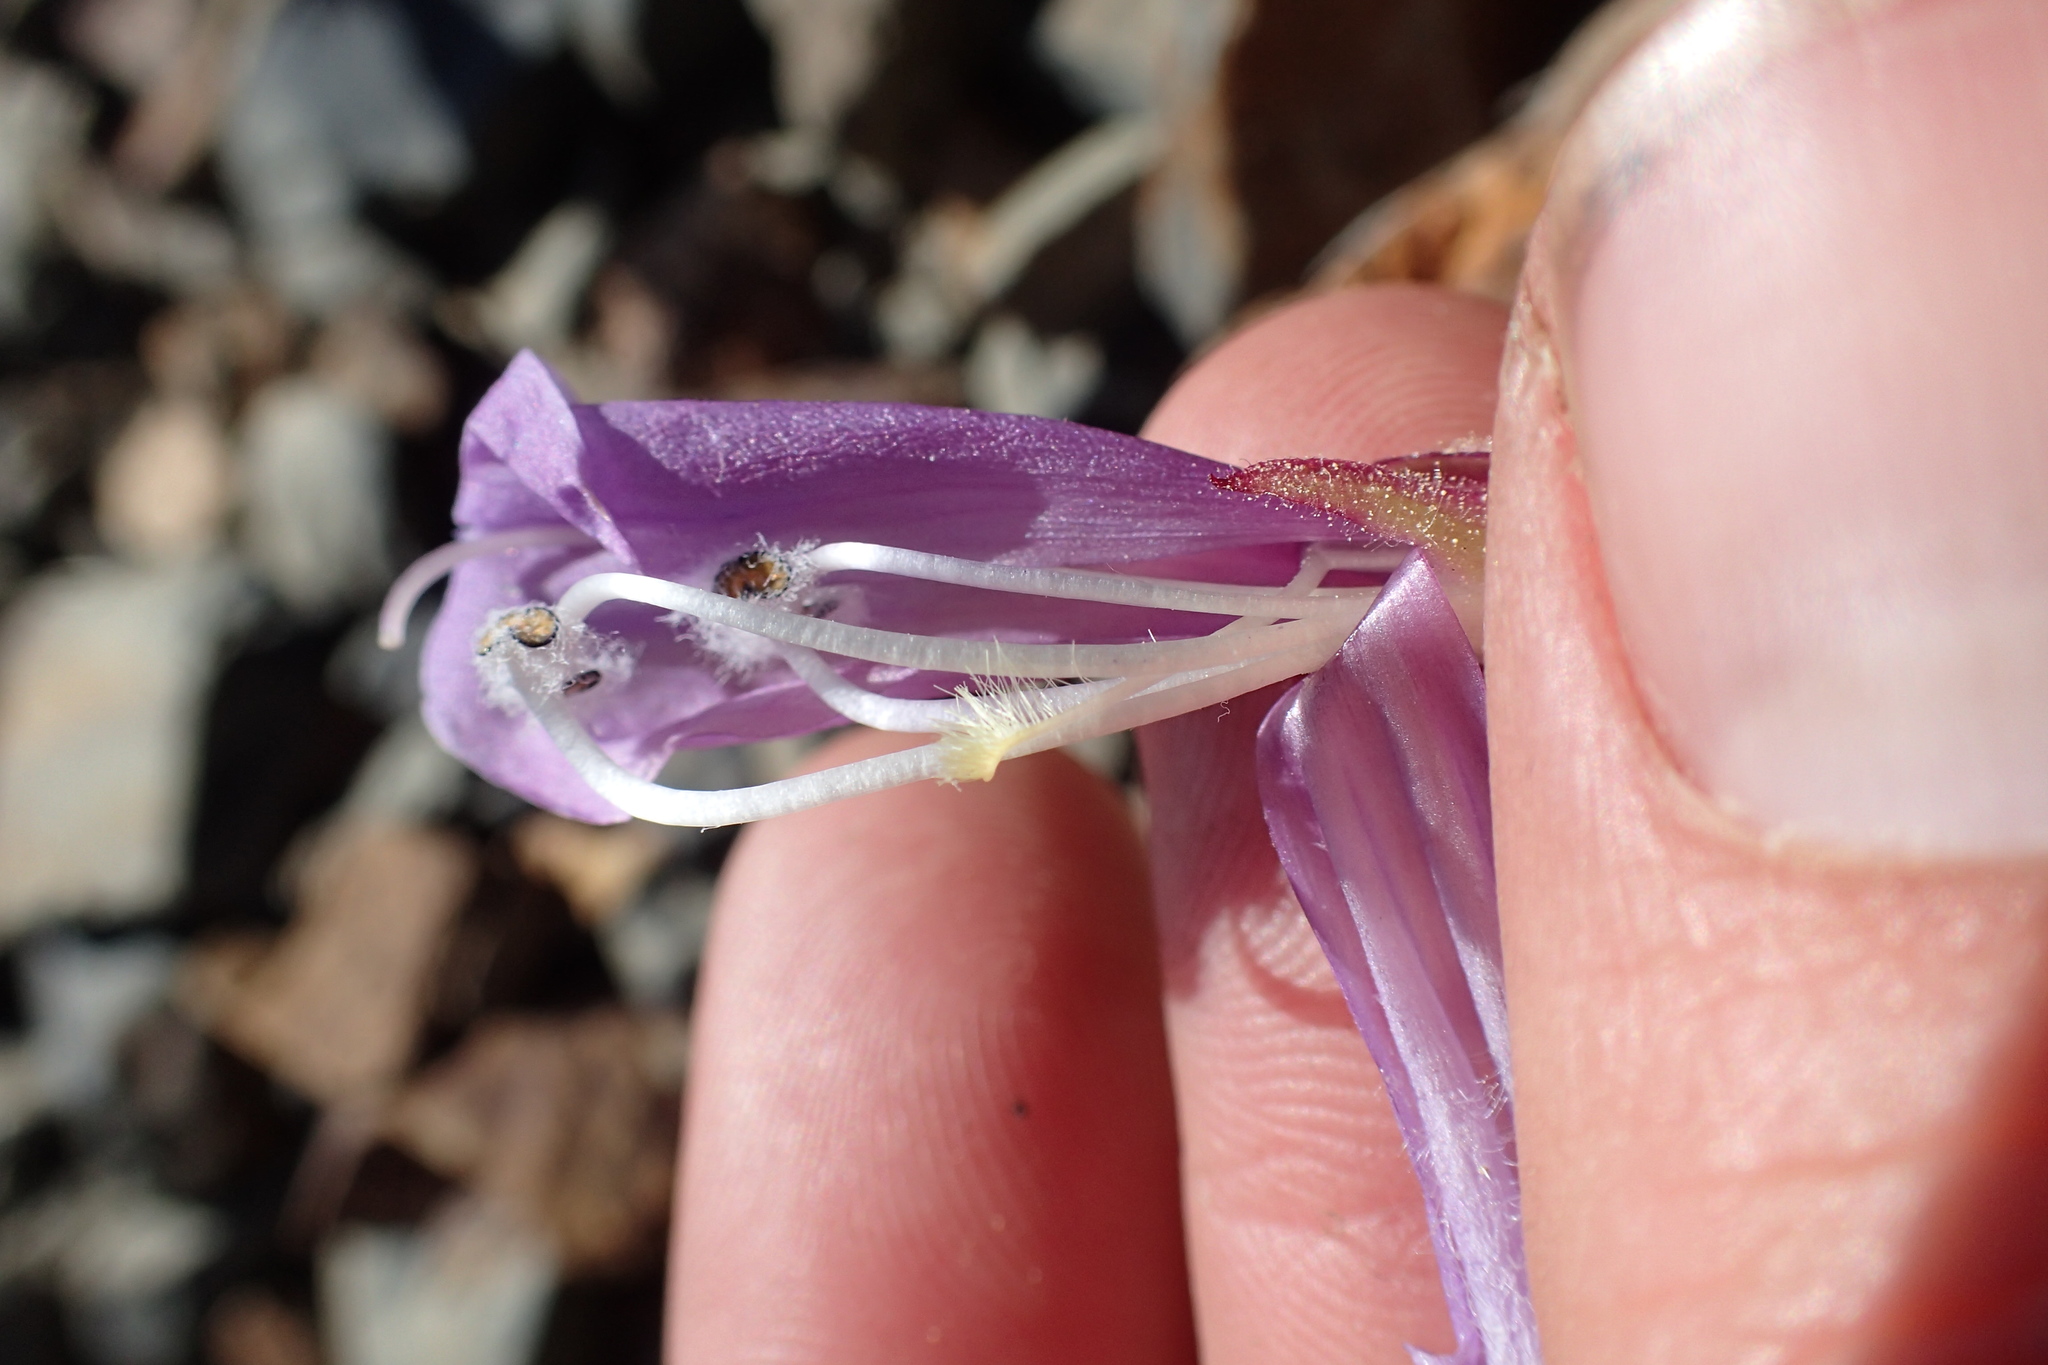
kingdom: Plantae
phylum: Tracheophyta
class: Magnoliopsida
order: Lamiales
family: Plantaginaceae
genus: Penstemon
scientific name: Penstemon davidsonii
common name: Davidson's penstemon
